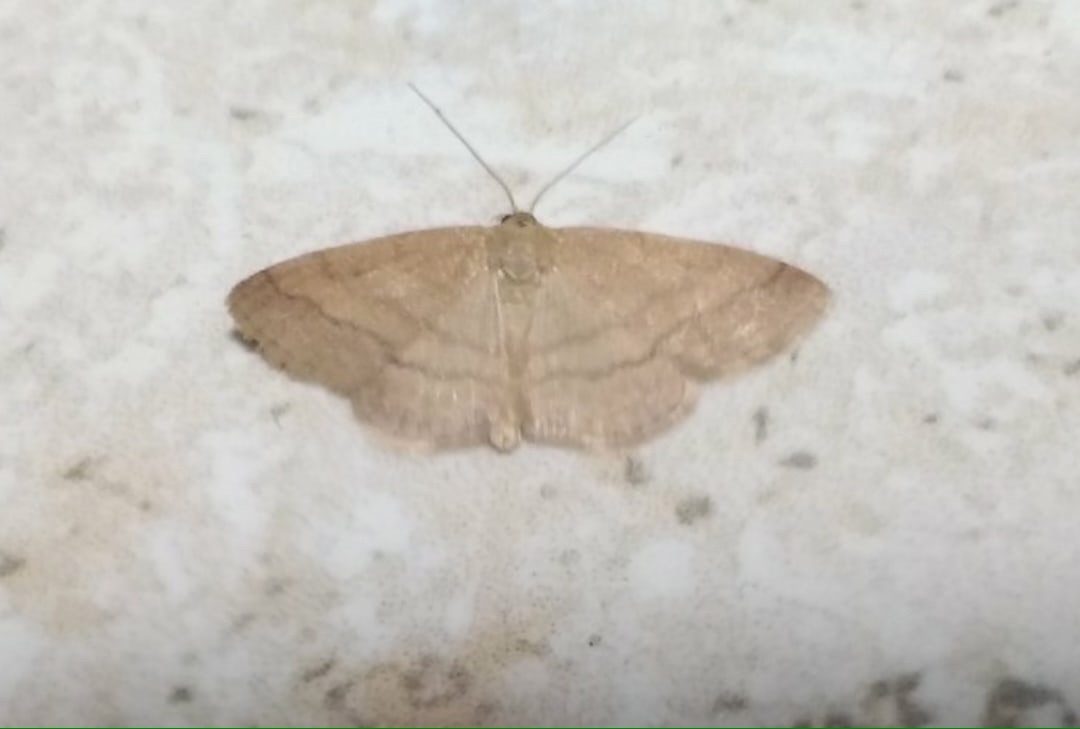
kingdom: Animalia
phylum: Arthropoda
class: Insecta
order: Lepidoptera
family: Geometridae
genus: Scopula
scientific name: Scopula rubiginata
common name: Tawny wave
